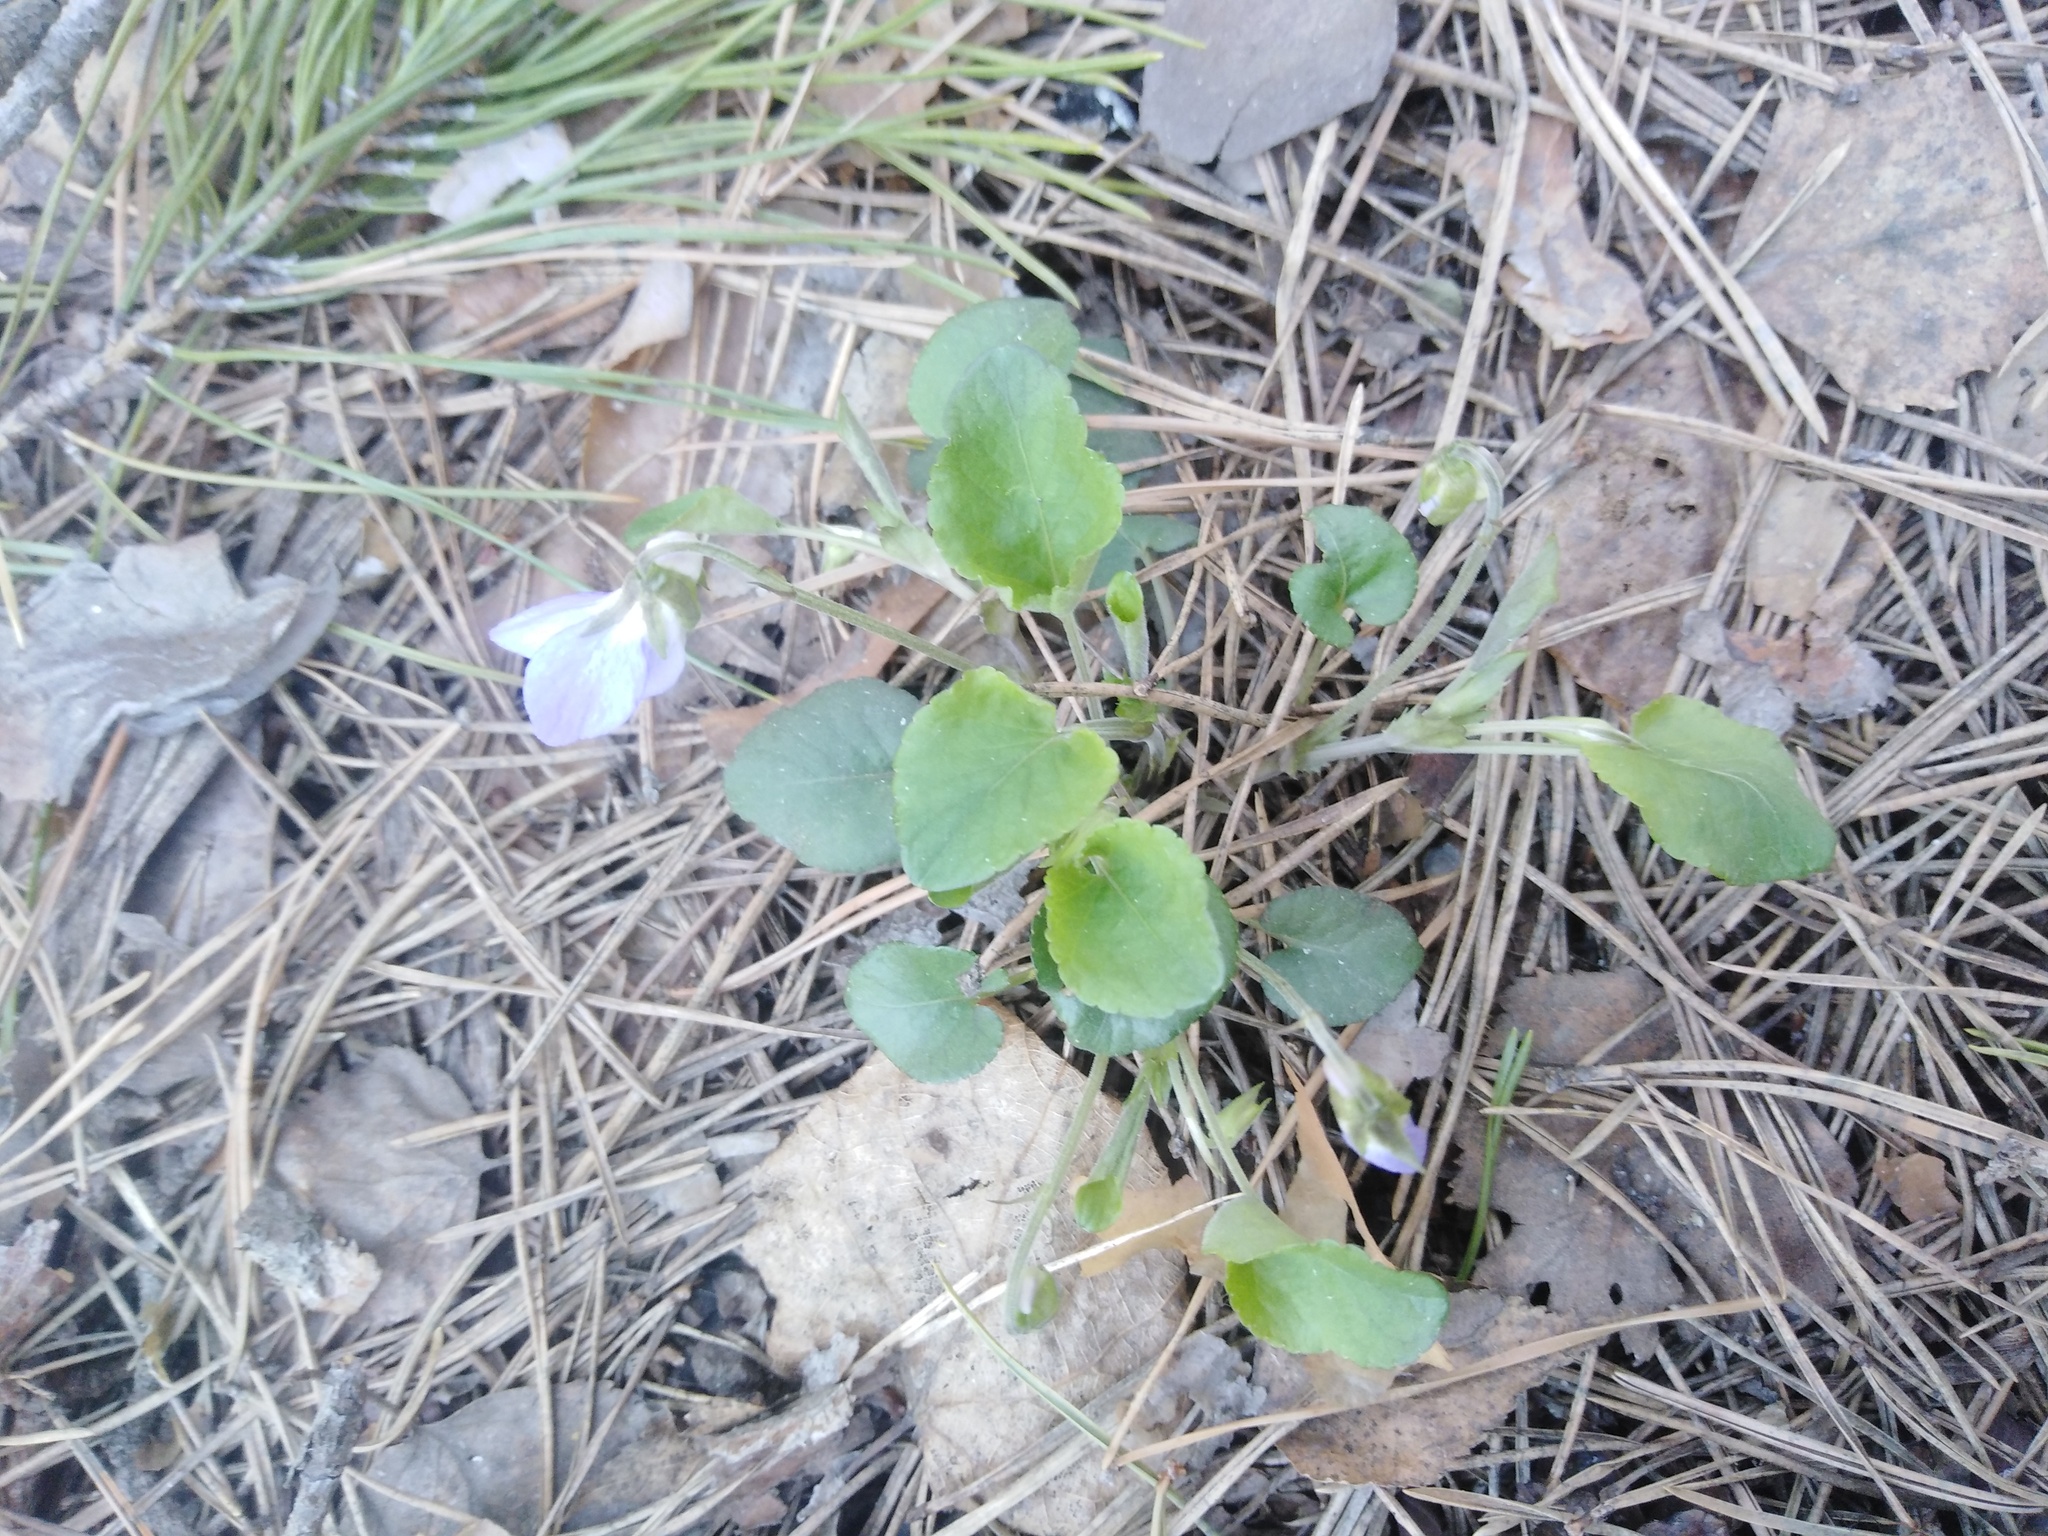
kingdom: Plantae
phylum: Tracheophyta
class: Magnoliopsida
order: Malpighiales
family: Violaceae
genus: Viola
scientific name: Viola rupestris
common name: Teesdale violet
